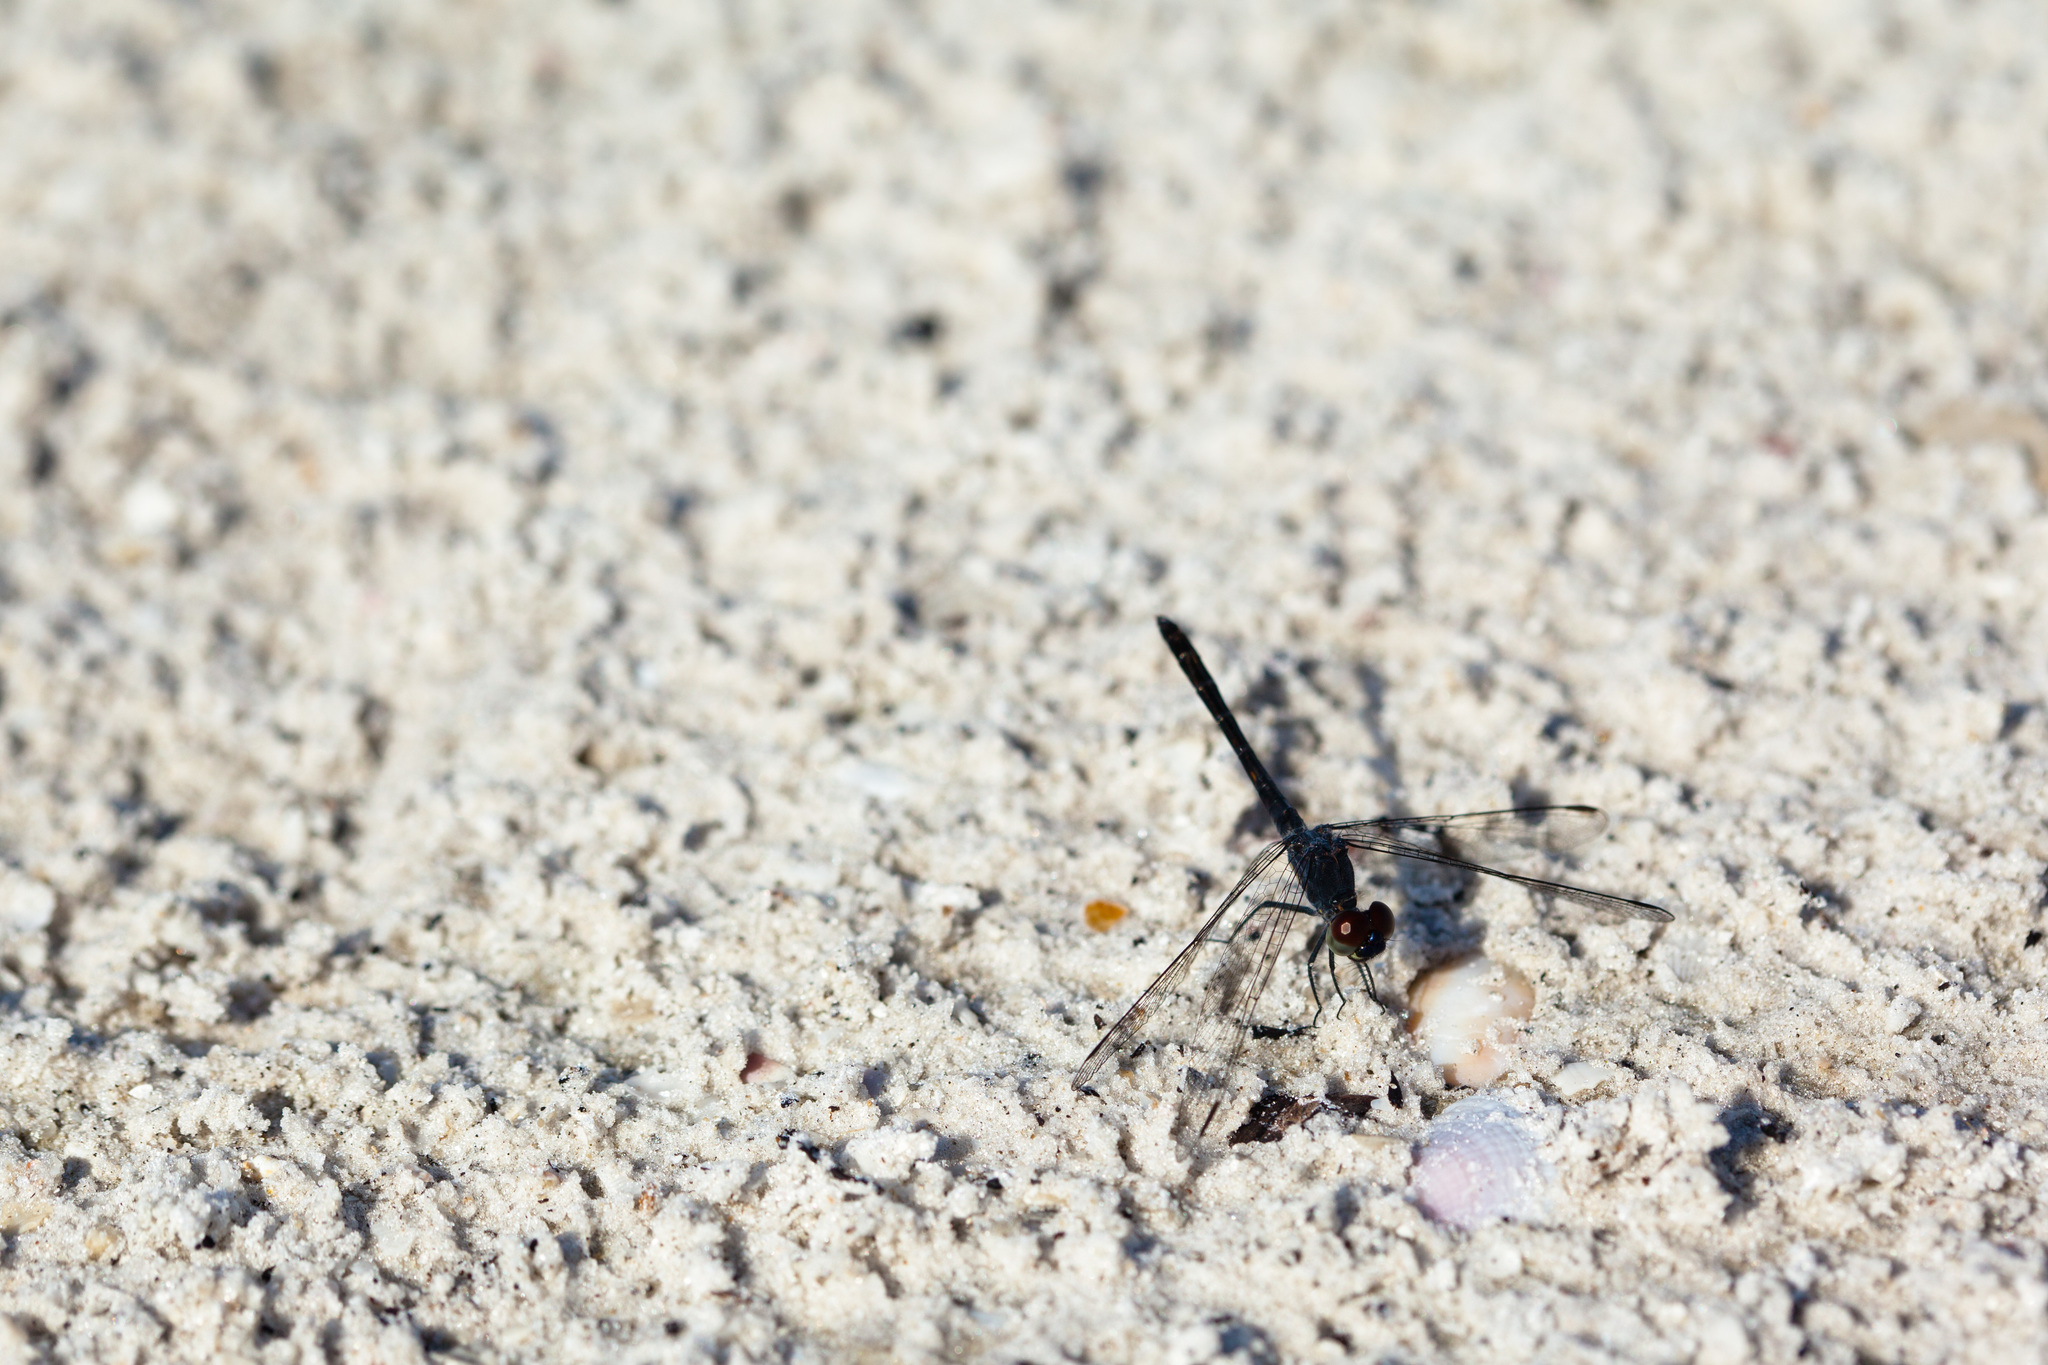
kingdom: Animalia
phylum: Arthropoda
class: Insecta
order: Odonata
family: Libellulidae
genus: Erythrodiplax
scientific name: Erythrodiplax berenice
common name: Seaside dragonlet
